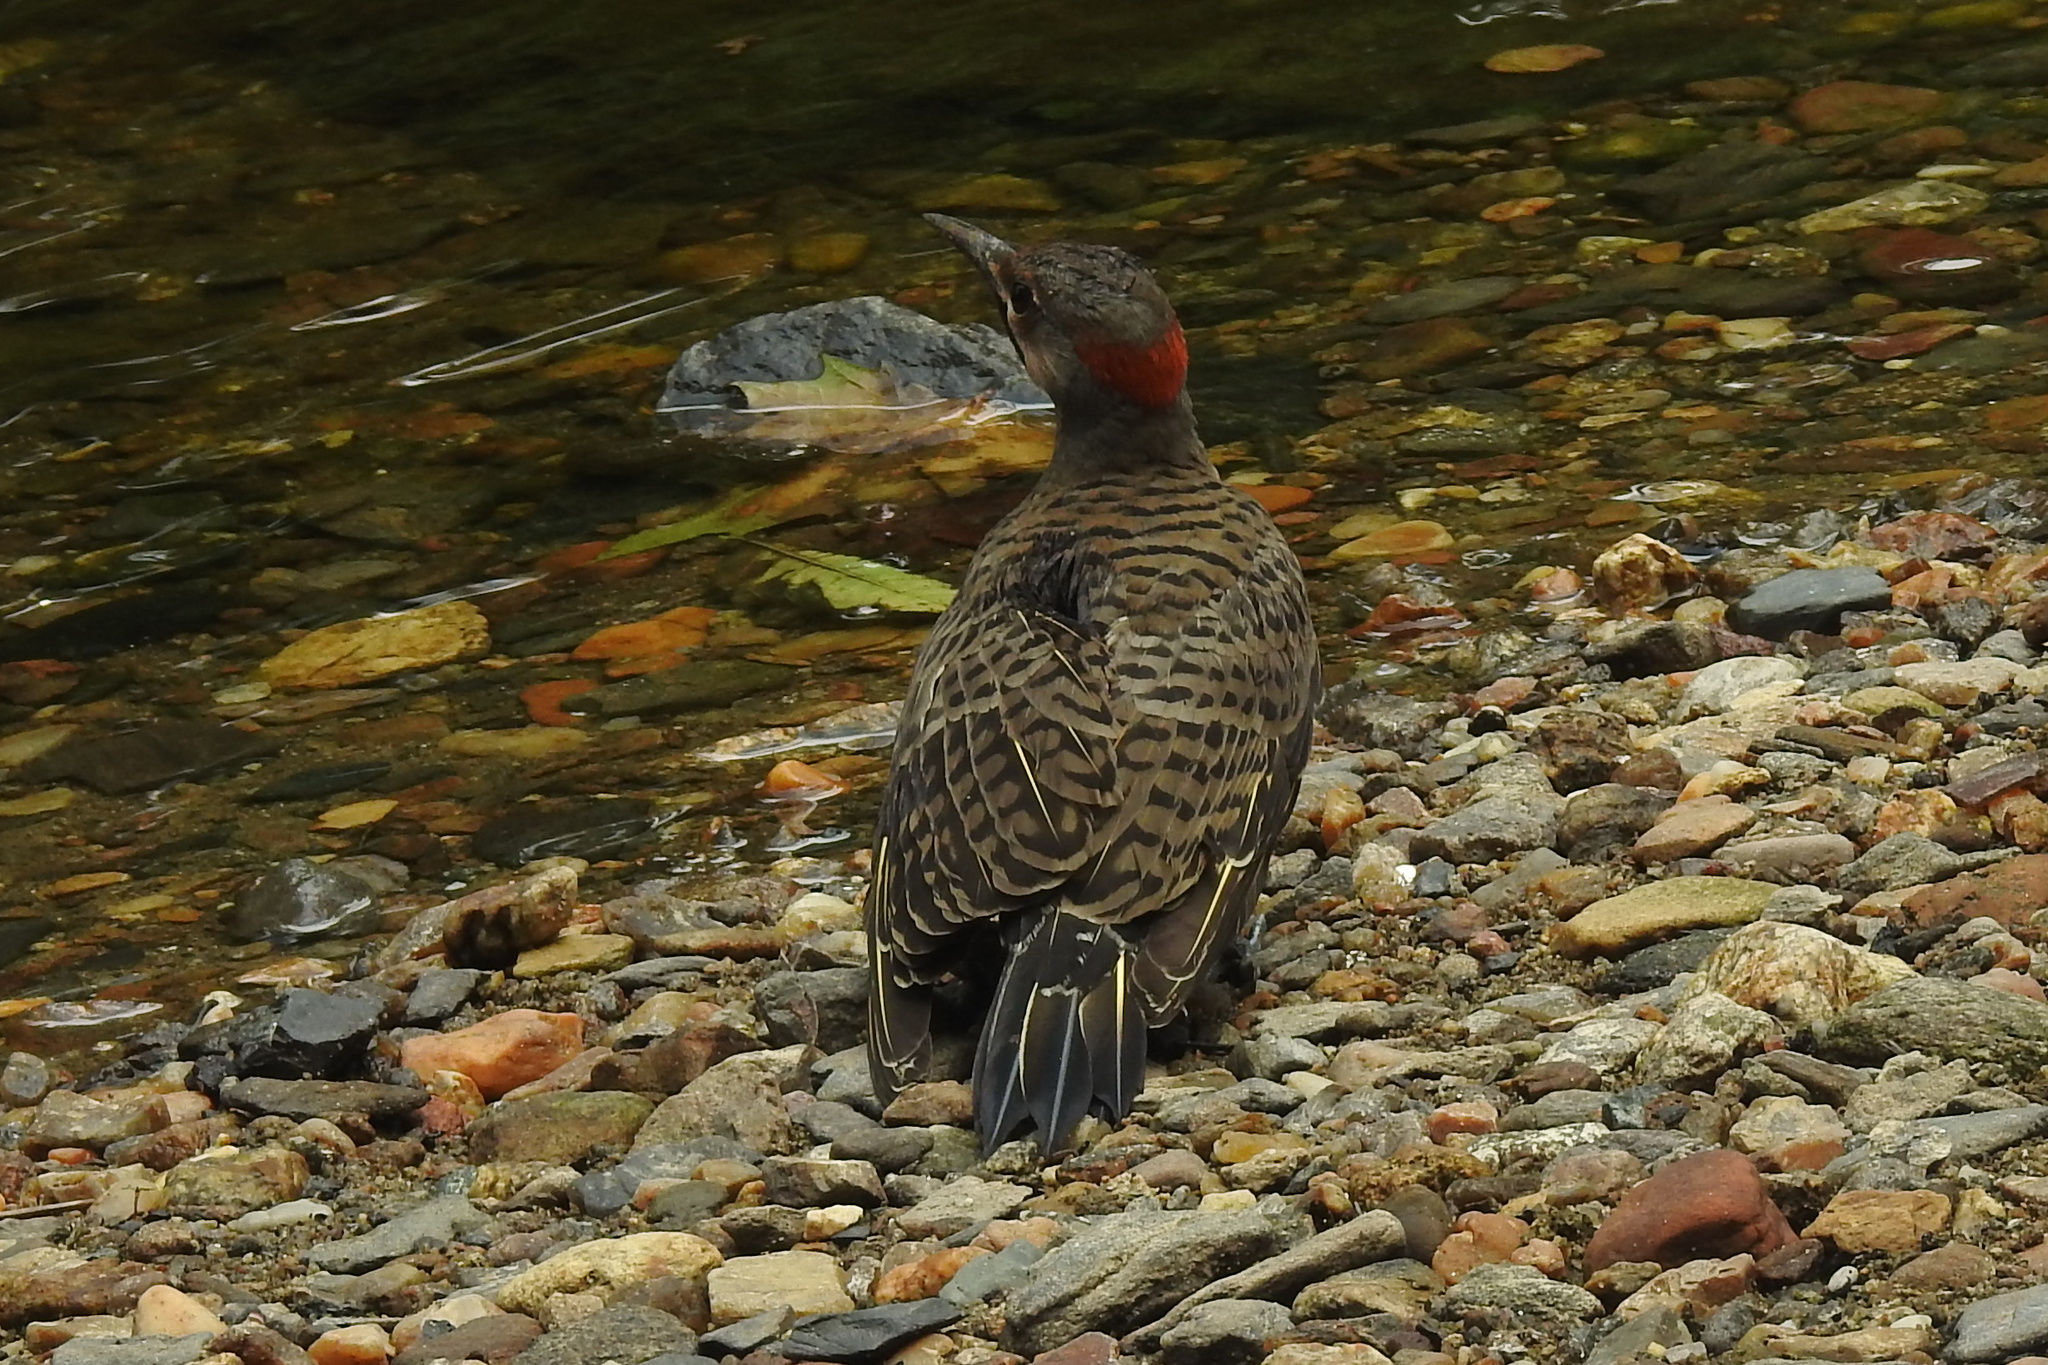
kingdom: Animalia
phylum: Chordata
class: Aves
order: Piciformes
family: Picidae
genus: Colaptes
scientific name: Colaptes auratus
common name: Northern flicker
